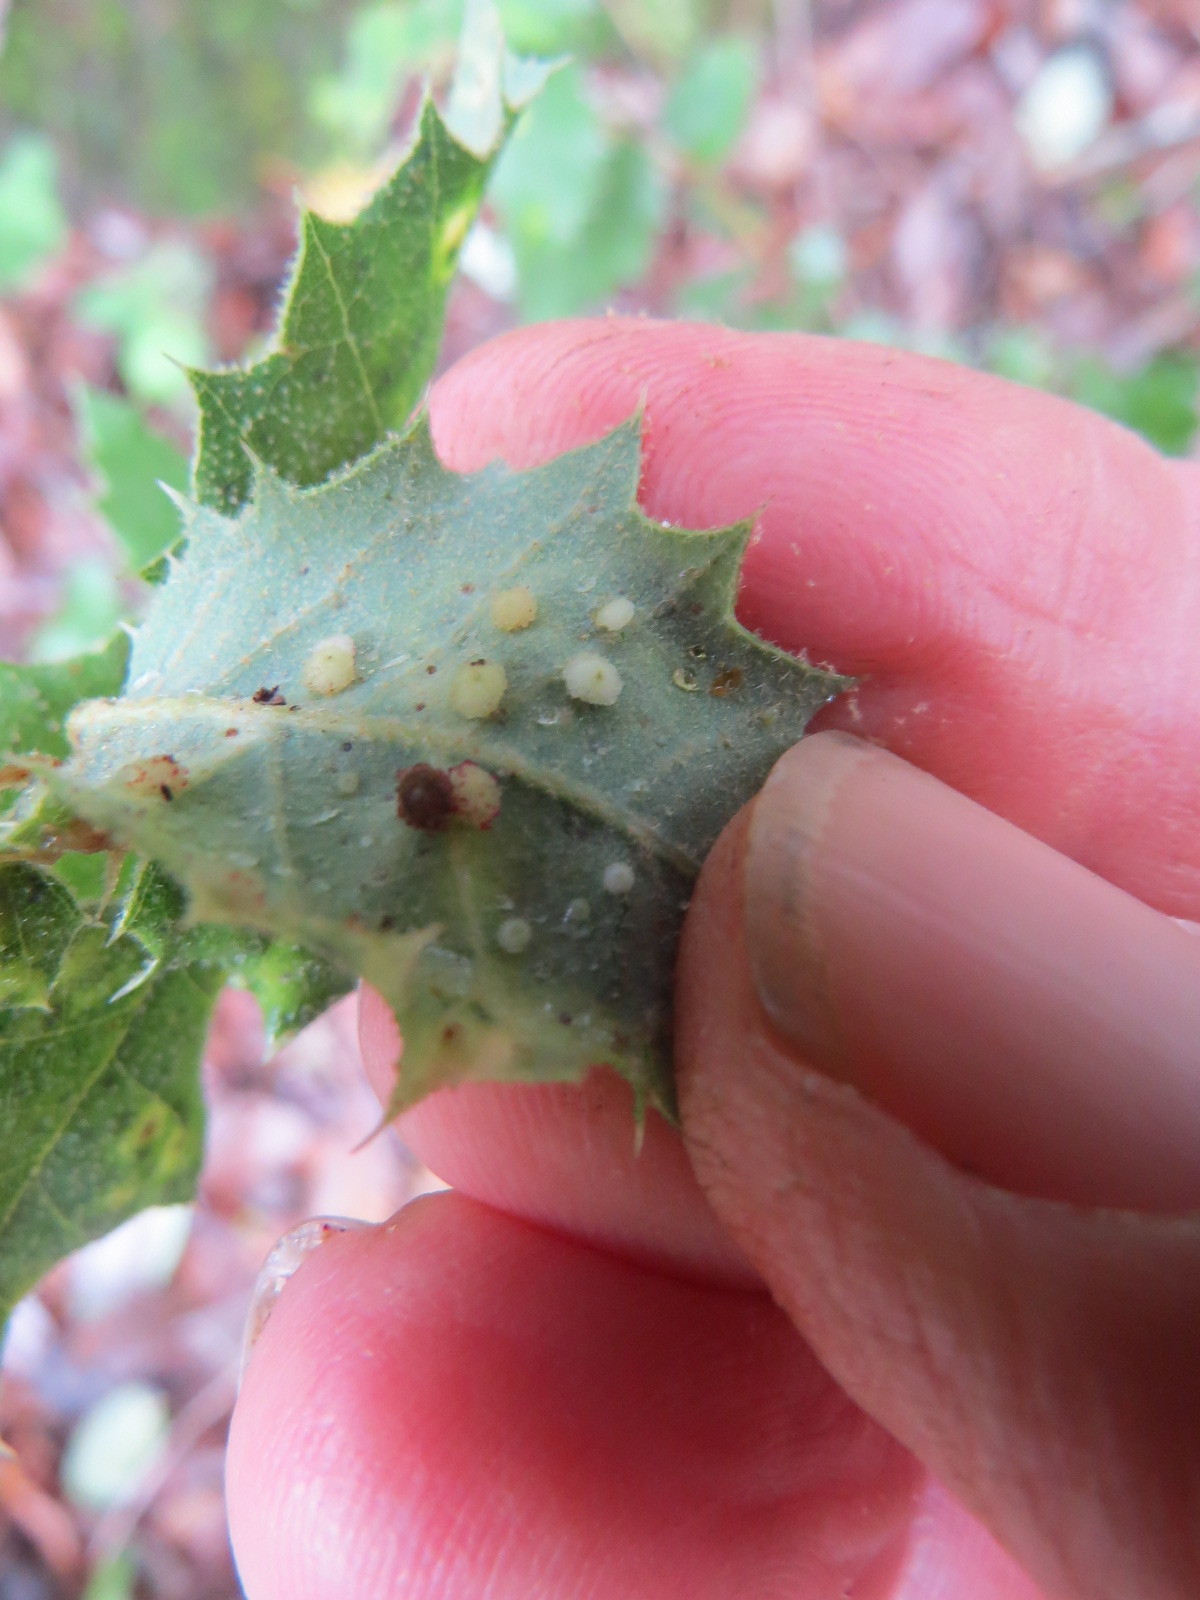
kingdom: Animalia
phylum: Arthropoda
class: Insecta
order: Hymenoptera
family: Cynipidae
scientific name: Cynipidae
